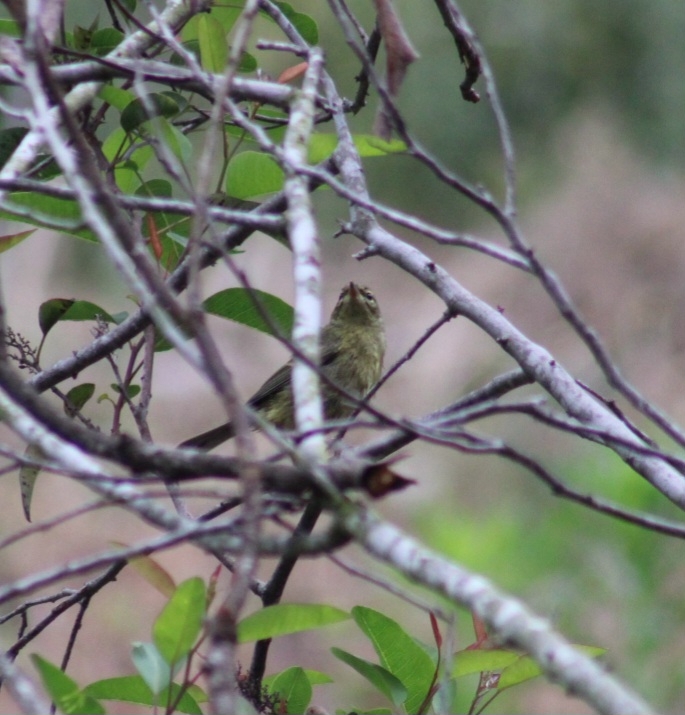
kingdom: Animalia
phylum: Chordata
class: Aves
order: Passeriformes
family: Parulidae
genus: Leiothlypis
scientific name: Leiothlypis celata
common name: Orange-crowned warbler
